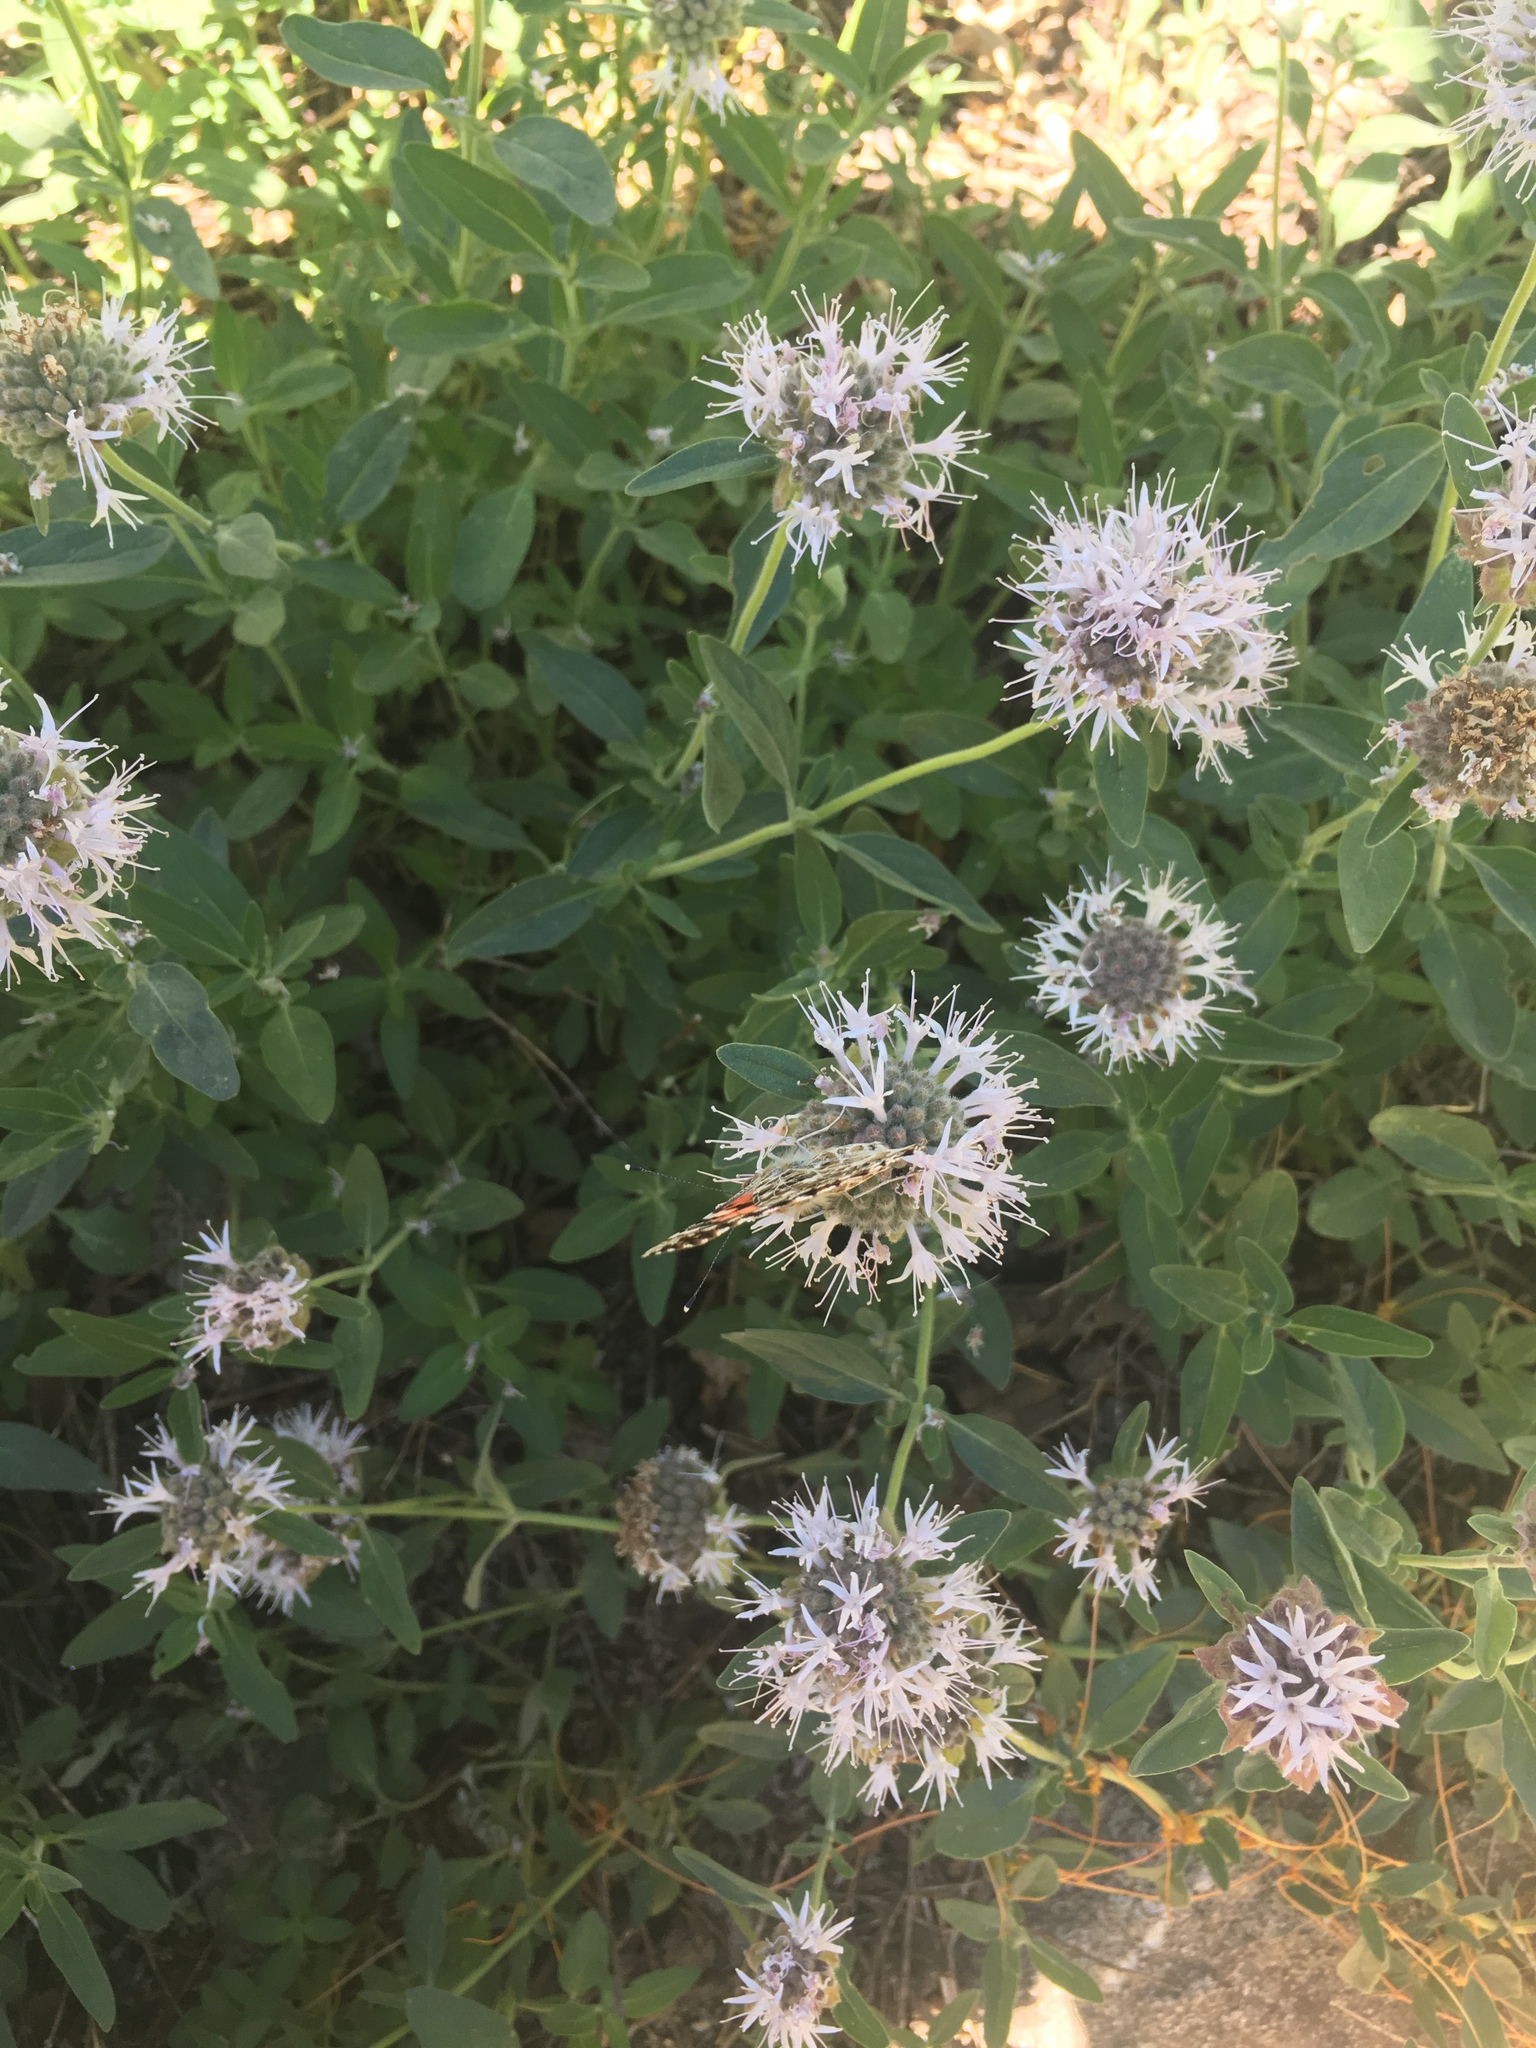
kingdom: Animalia
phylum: Arthropoda
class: Insecta
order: Lepidoptera
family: Nymphalidae
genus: Vanessa
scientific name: Vanessa cardui
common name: Painted lady
